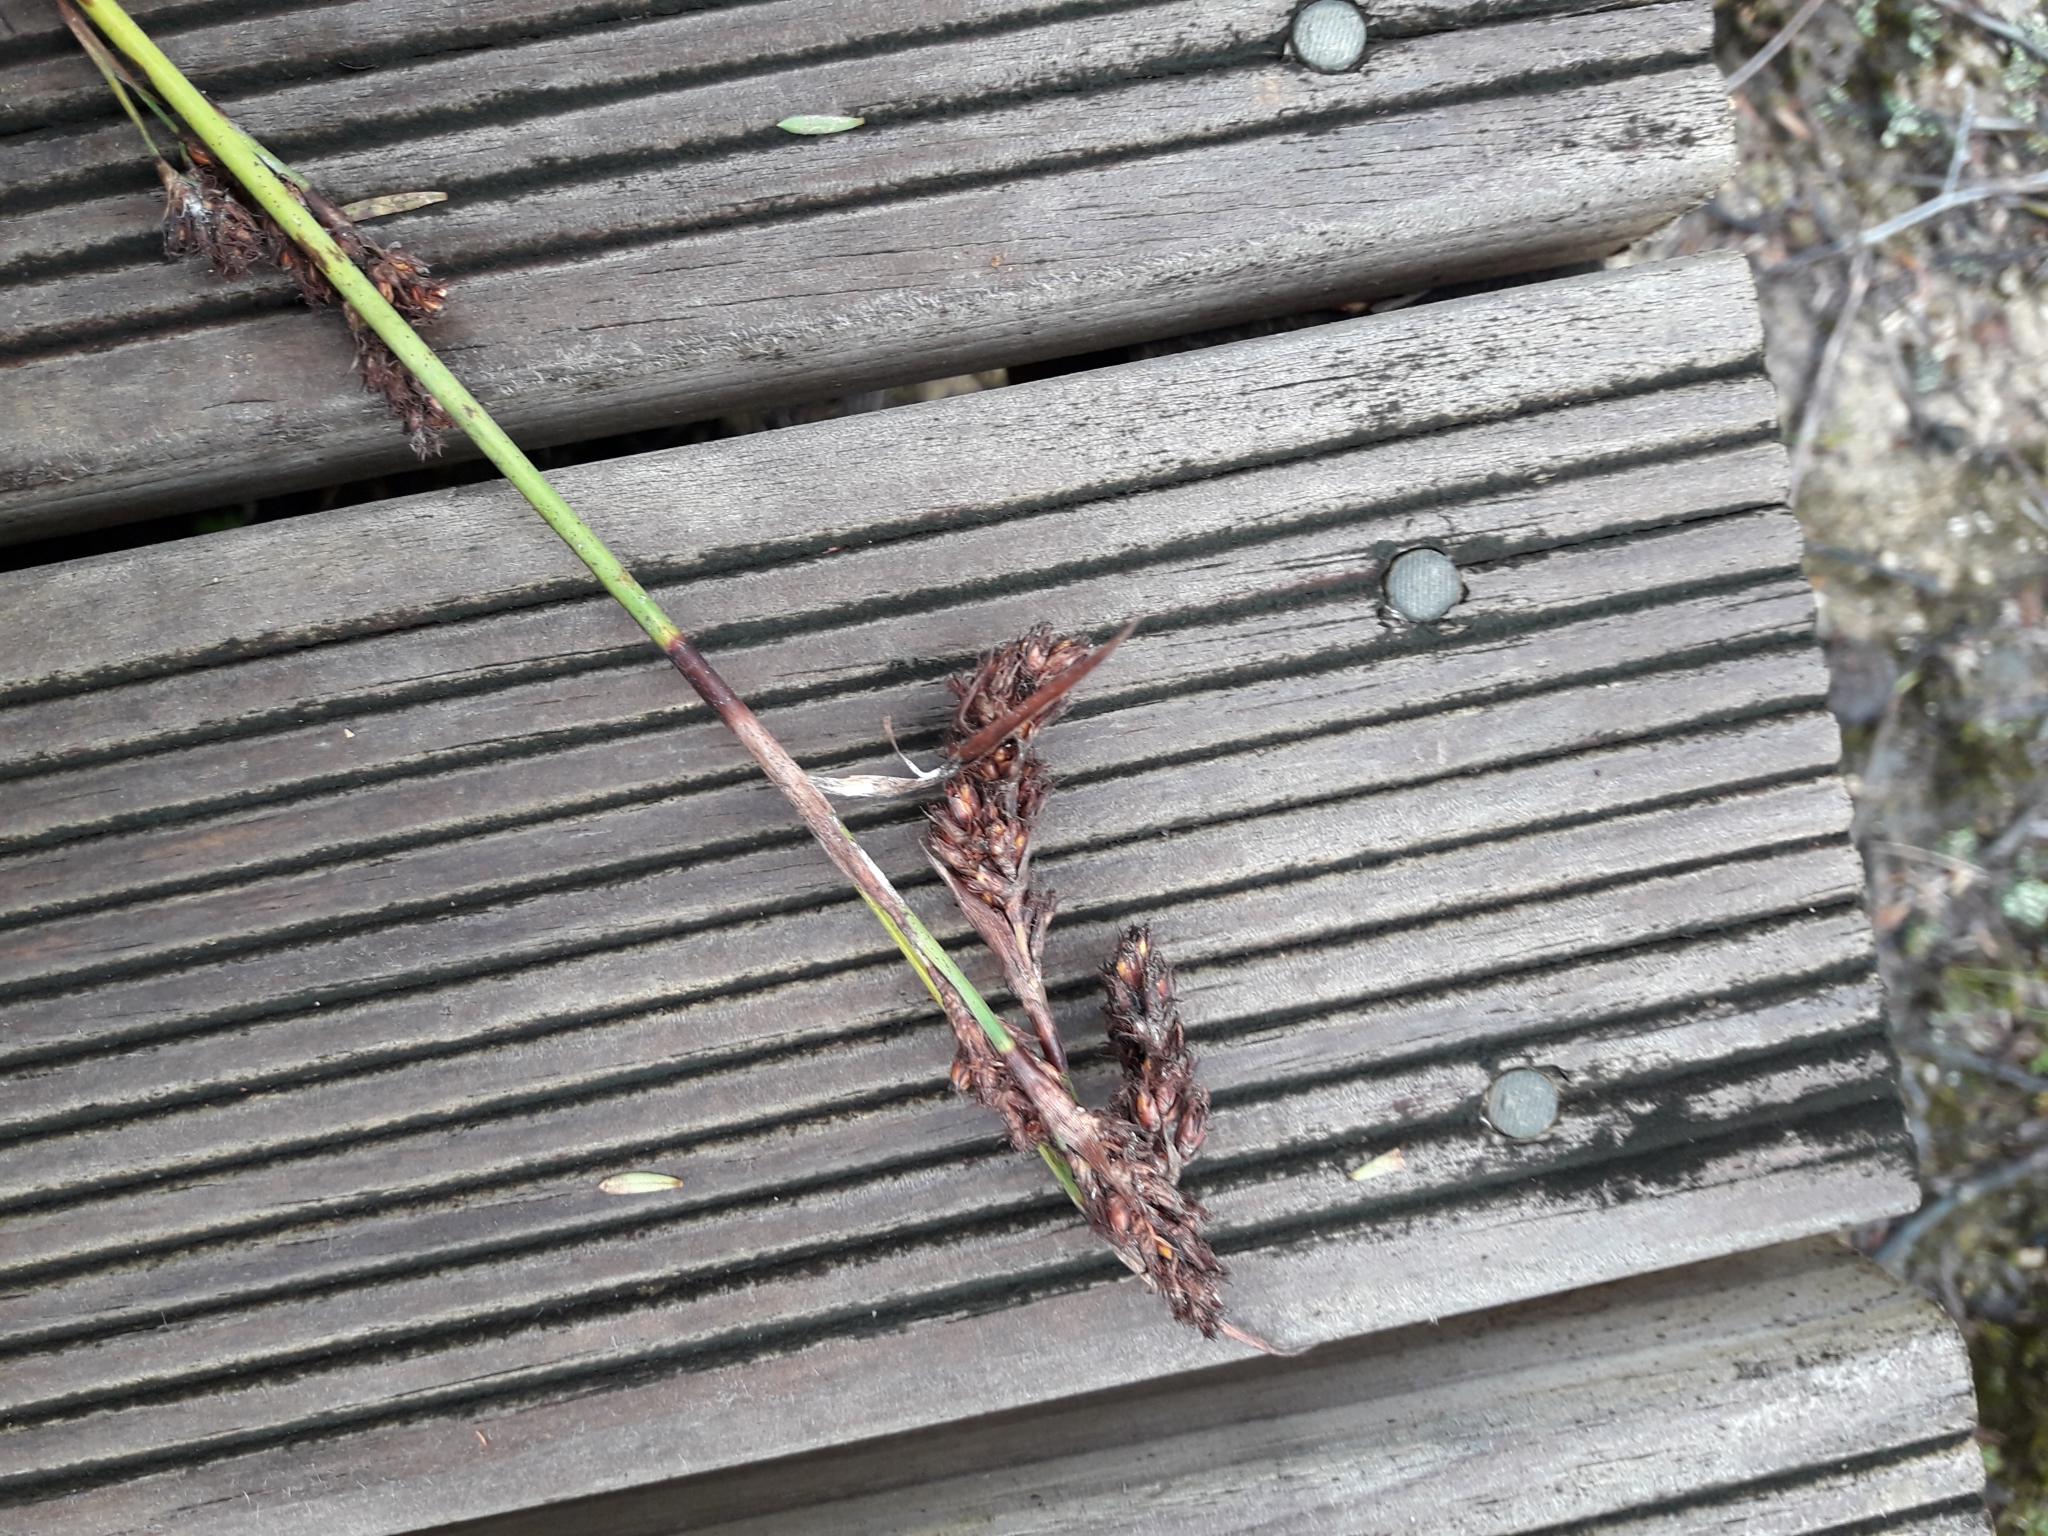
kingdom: Plantae
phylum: Tracheophyta
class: Liliopsida
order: Poales
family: Cyperaceae
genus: Machaerina
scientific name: Machaerina rubiginosa
